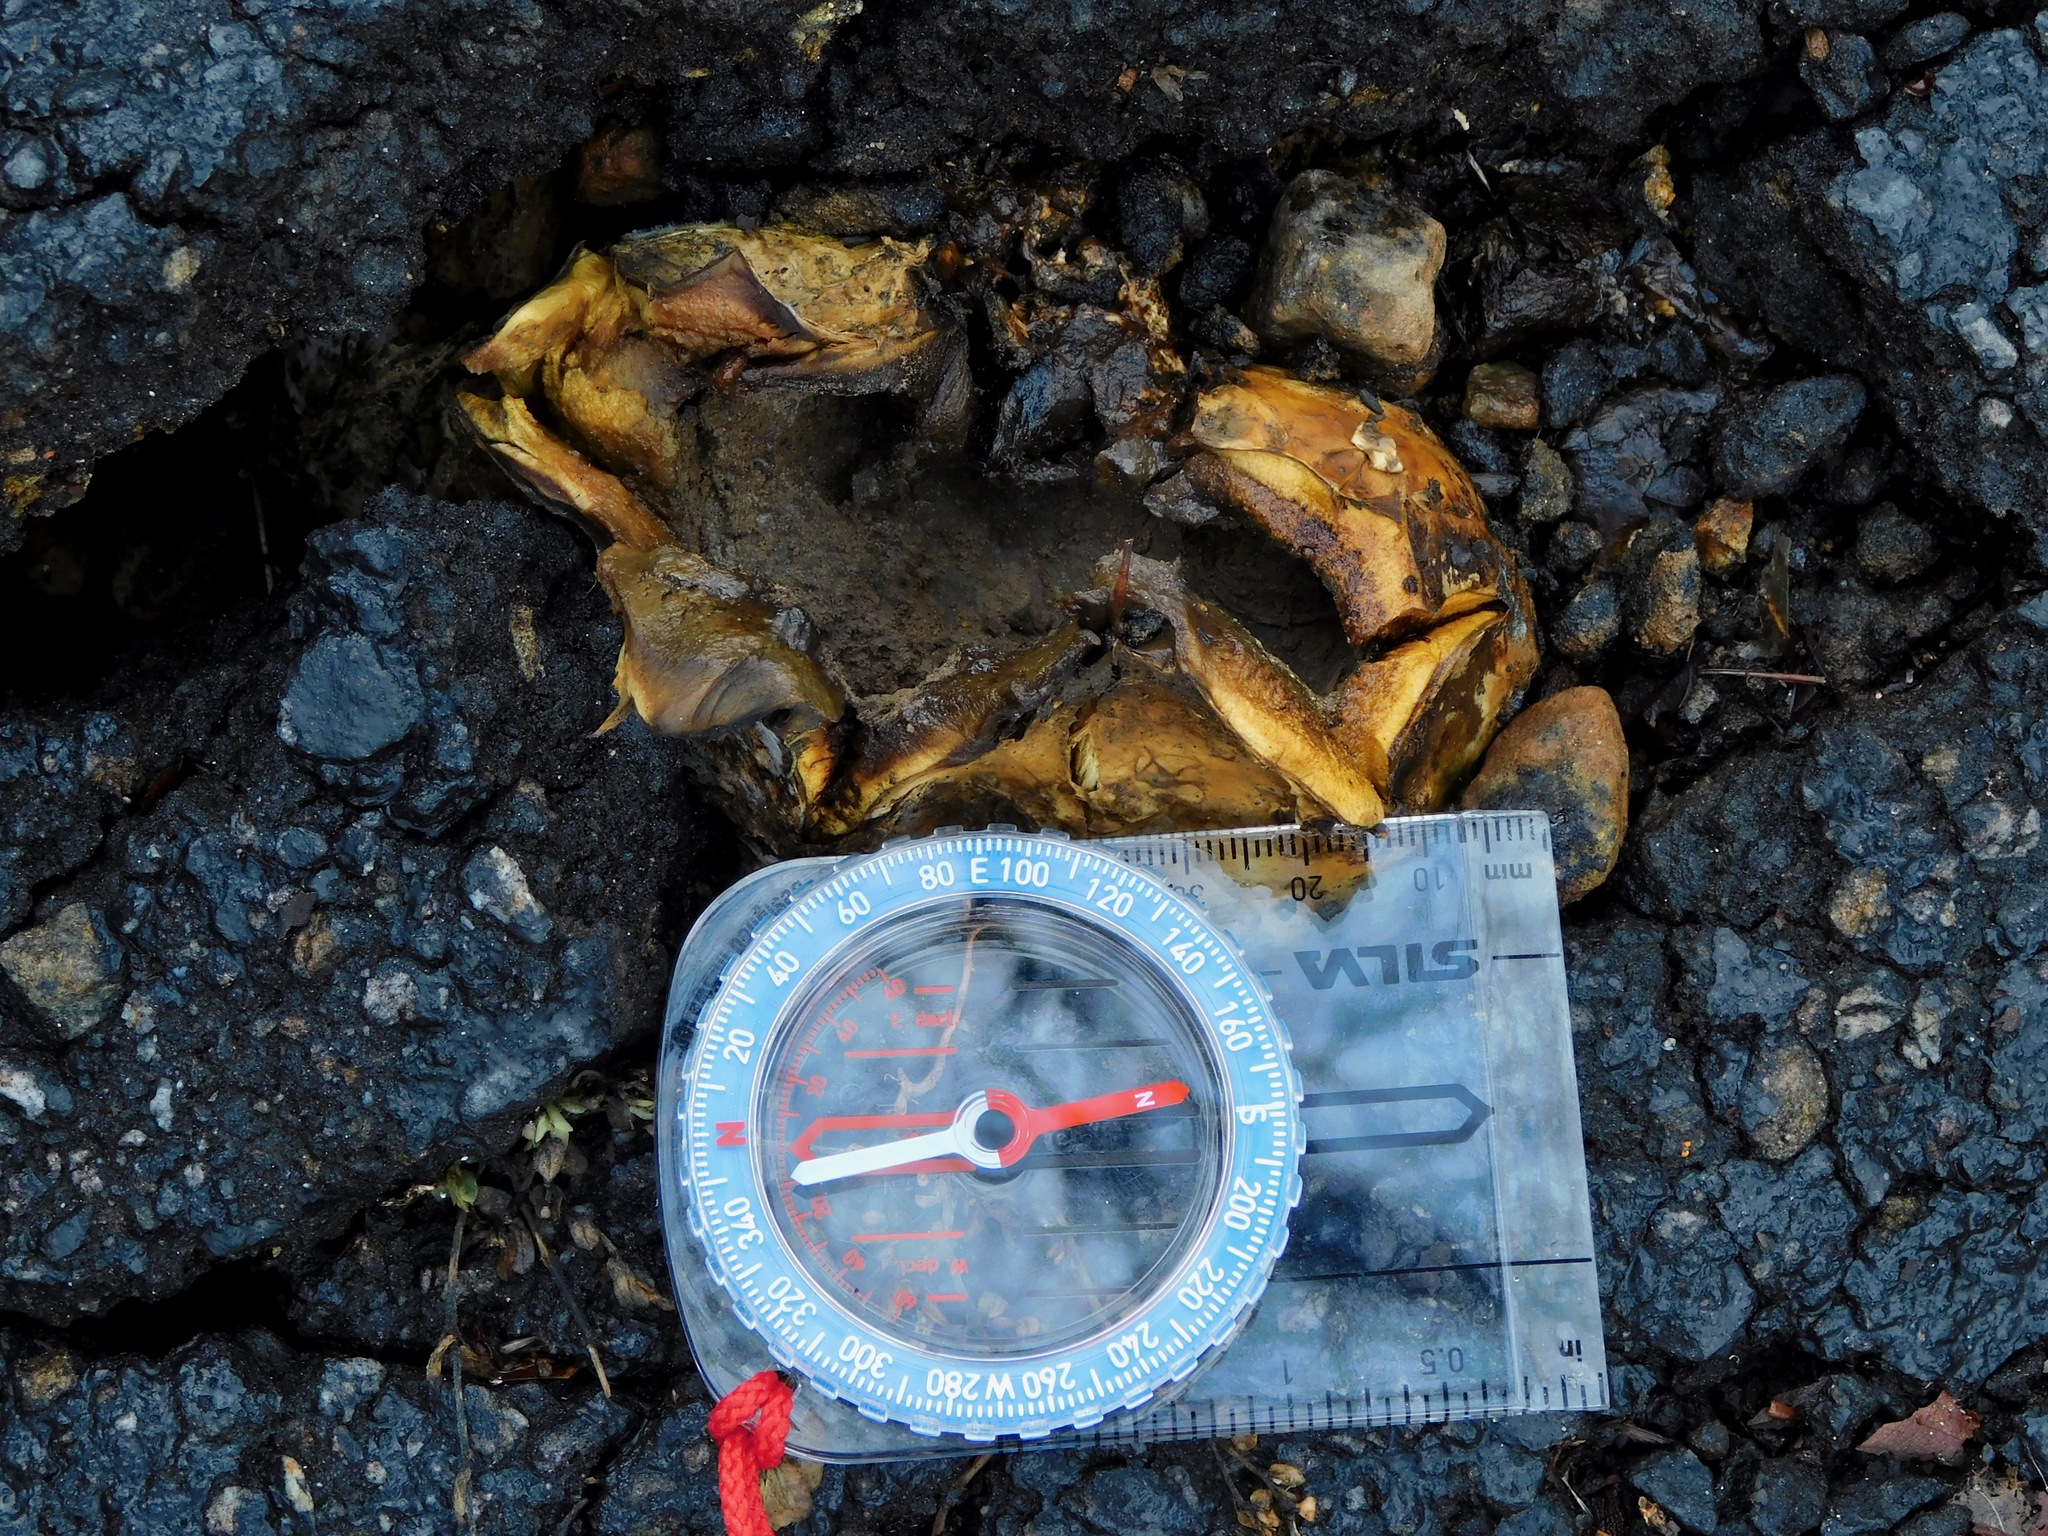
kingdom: Fungi
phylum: Basidiomycota
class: Agaricomycetes
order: Boletales
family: Sclerodermataceae
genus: Scleroderma
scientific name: Scleroderma polyrhizum
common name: Many-rooted earthball
